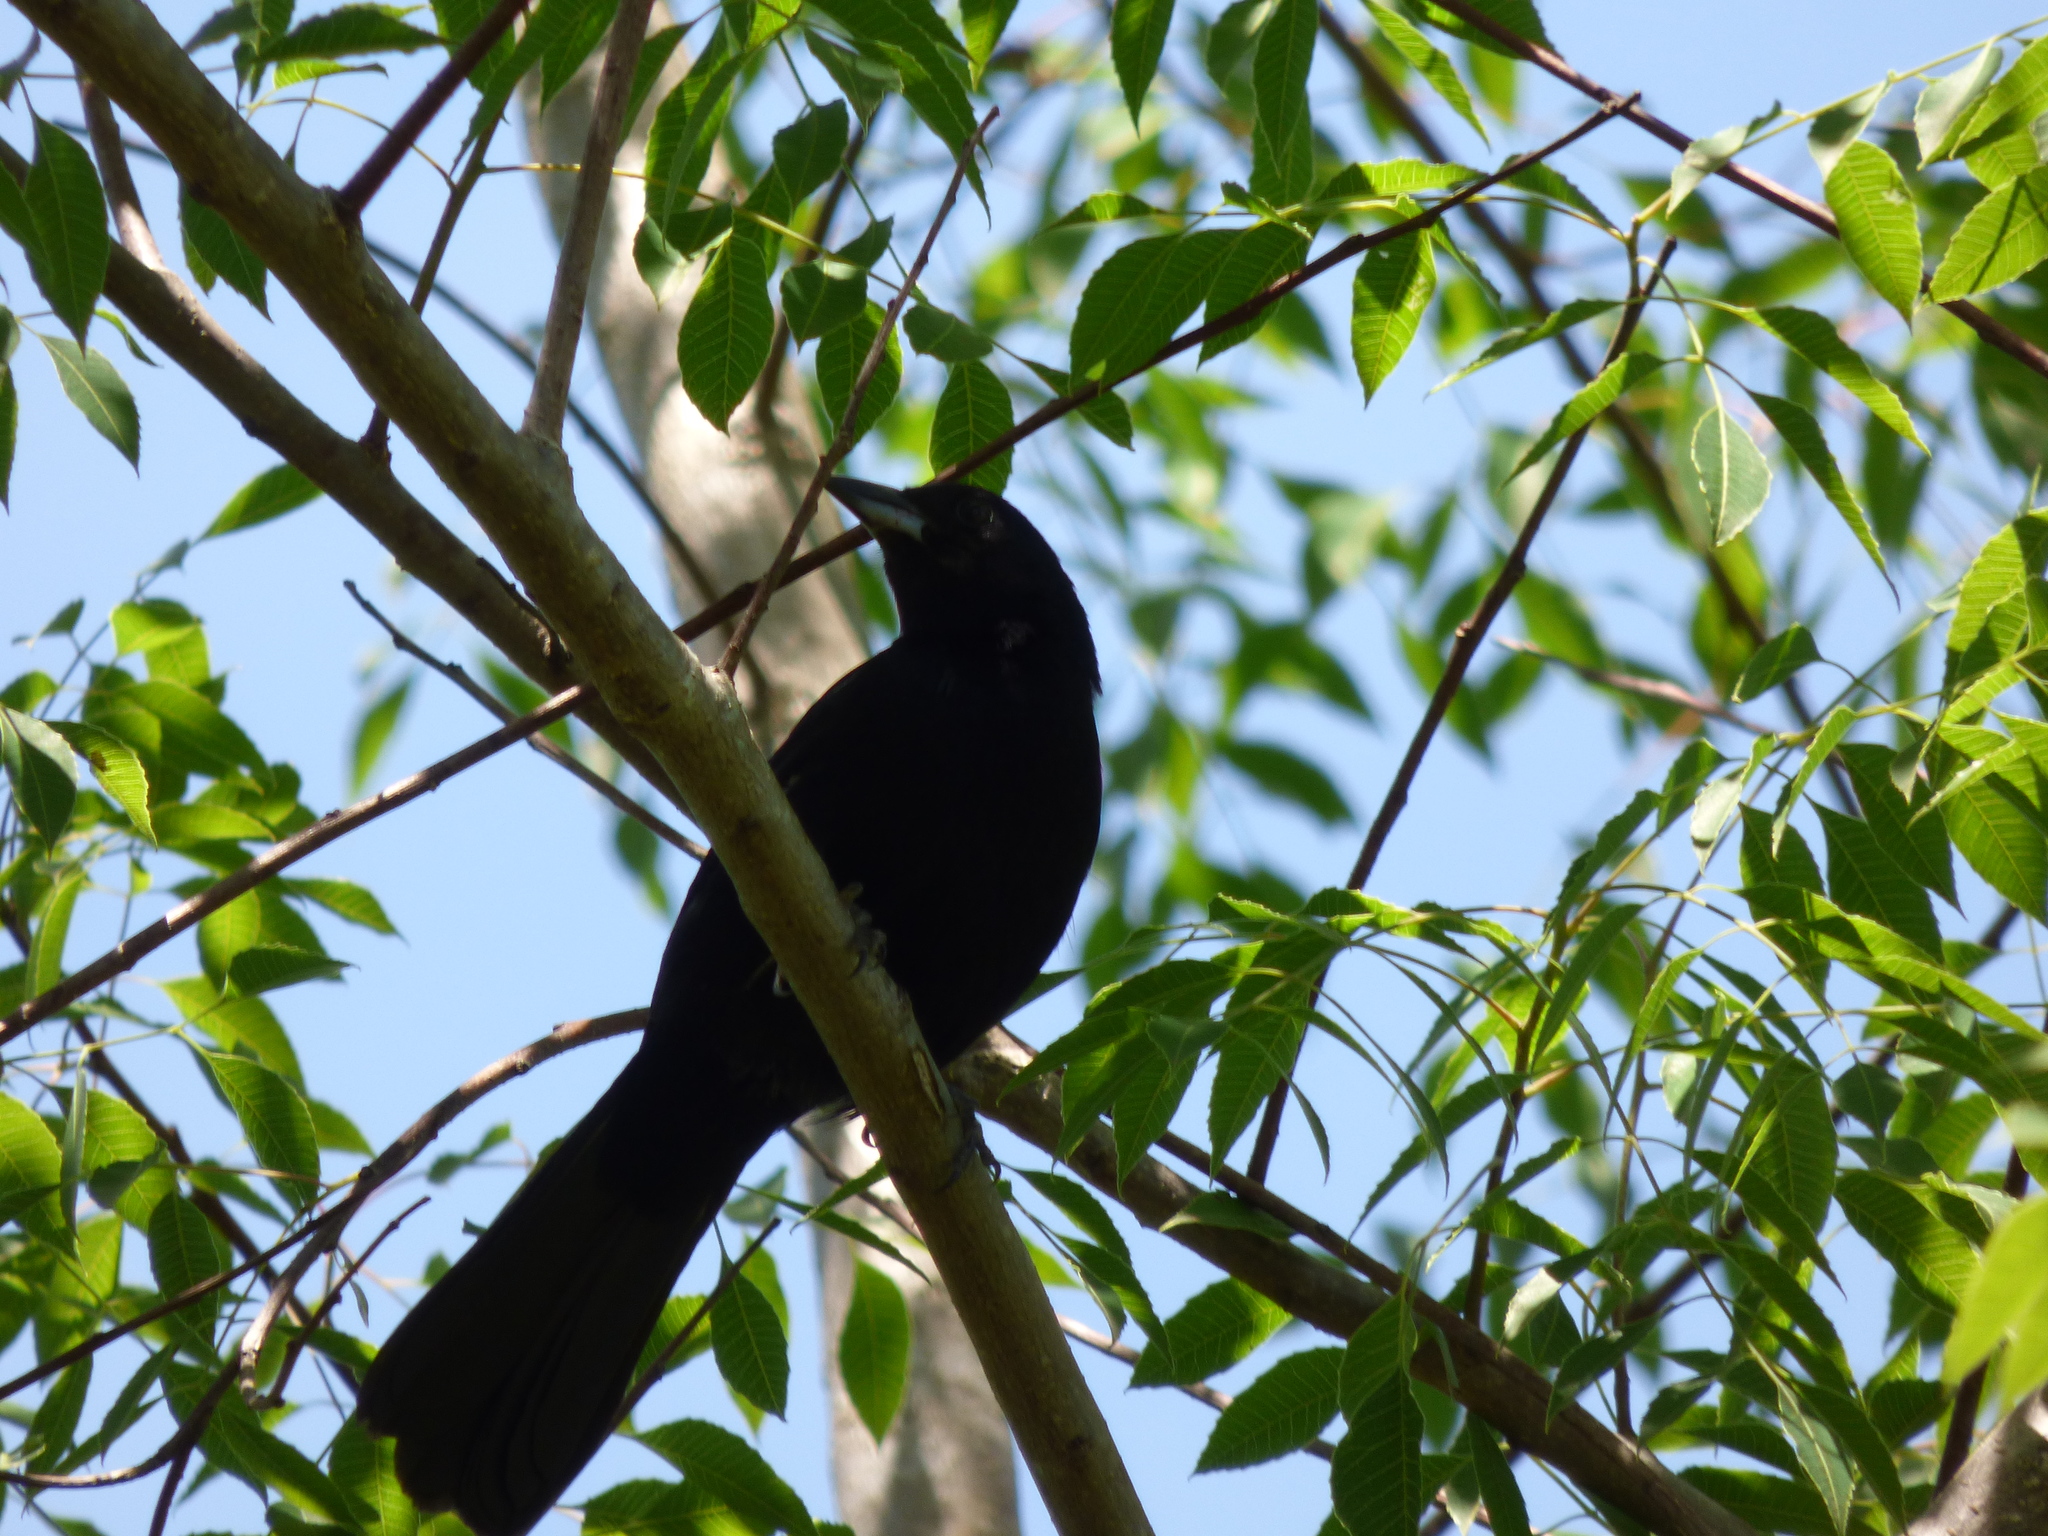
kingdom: Animalia
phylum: Chordata
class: Aves
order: Passeriformes
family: Icteridae
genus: Icterus
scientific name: Icterus cayanensis
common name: Epaulet oriole
